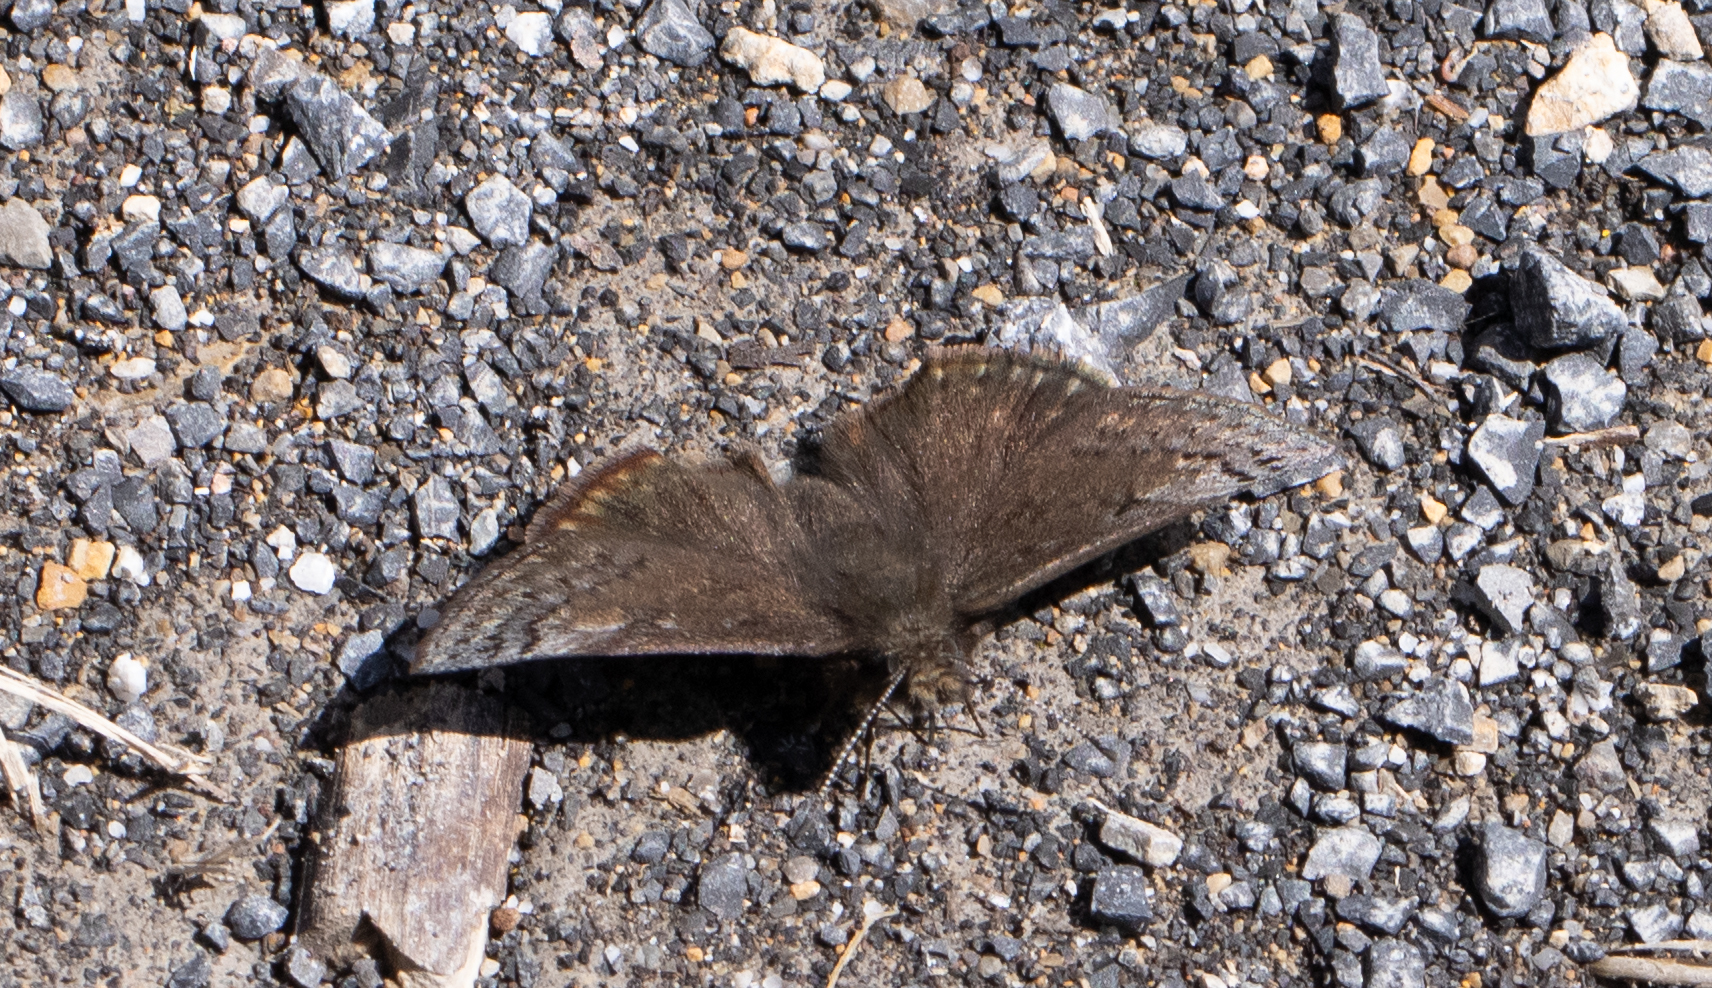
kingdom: Animalia
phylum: Arthropoda
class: Insecta
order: Lepidoptera
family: Hesperiidae
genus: Erynnis
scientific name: Erynnis brizo
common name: Sleepy duskywing
